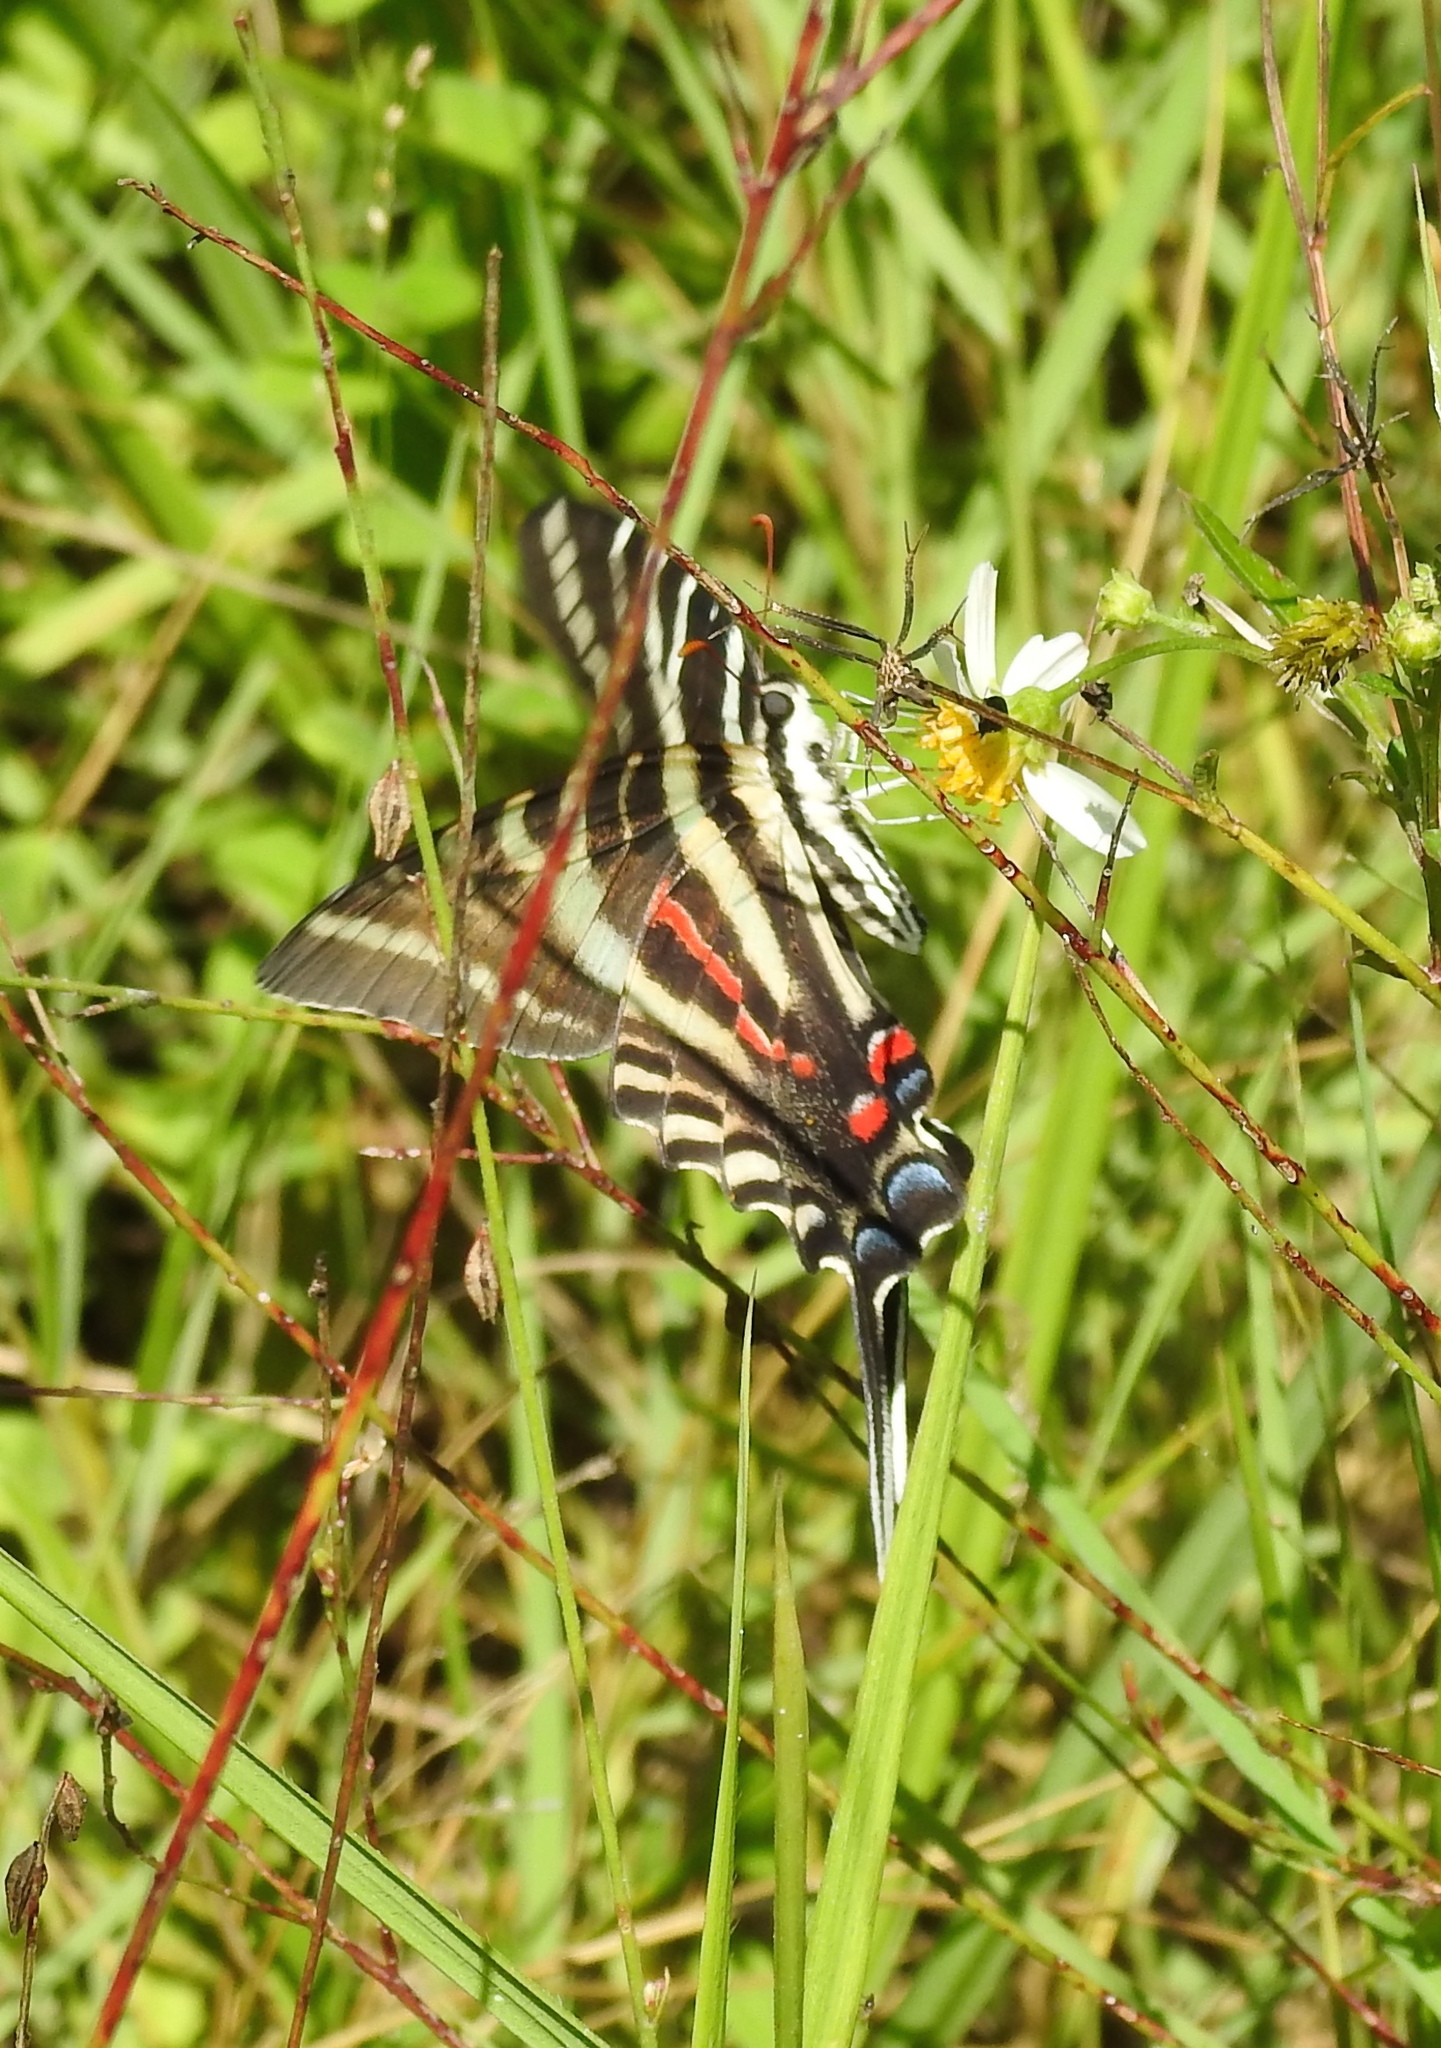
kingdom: Animalia
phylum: Arthropoda
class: Insecta
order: Lepidoptera
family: Papilionidae
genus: Protographium
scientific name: Protographium marcellus
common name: Zebra swallowtail
